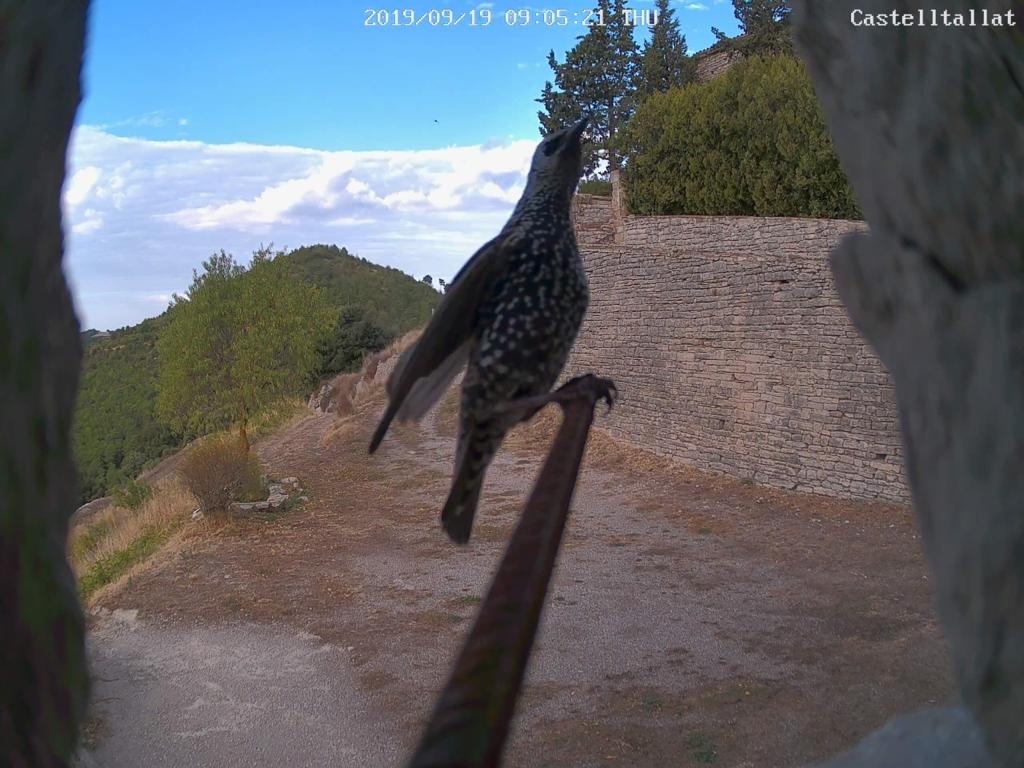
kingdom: Animalia
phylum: Chordata
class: Aves
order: Passeriformes
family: Sturnidae
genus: Sturnus
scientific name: Sturnus vulgaris
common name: Common starling
